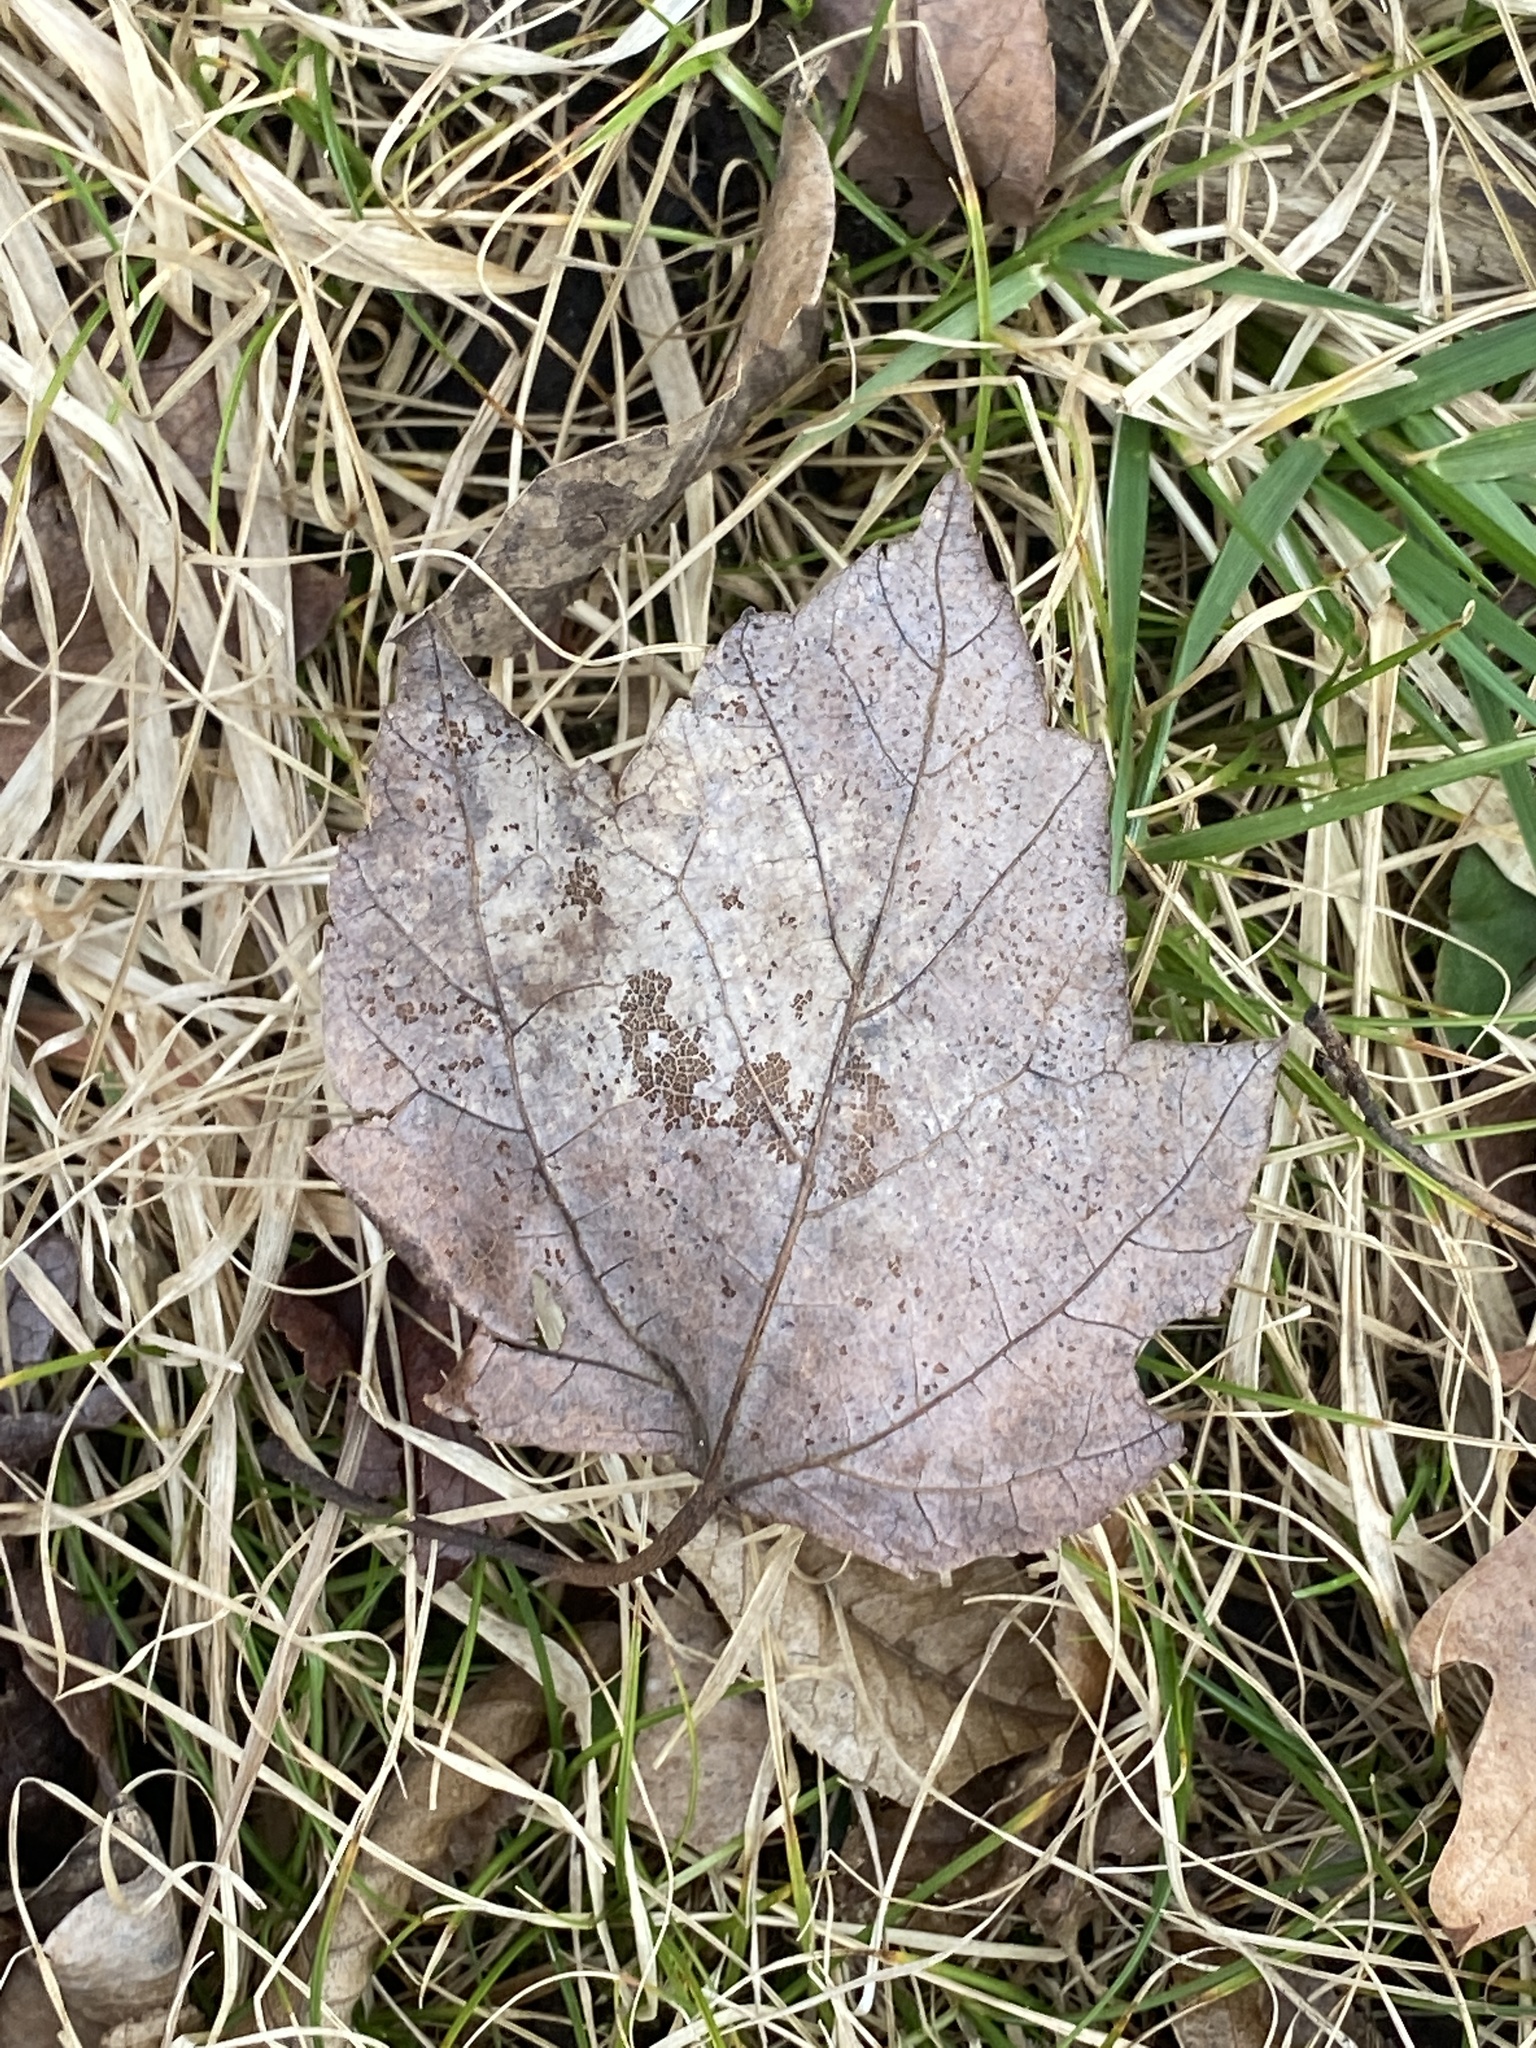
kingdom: Plantae
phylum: Tracheophyta
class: Magnoliopsida
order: Sapindales
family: Sapindaceae
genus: Acer
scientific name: Acer rubrum
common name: Red maple
